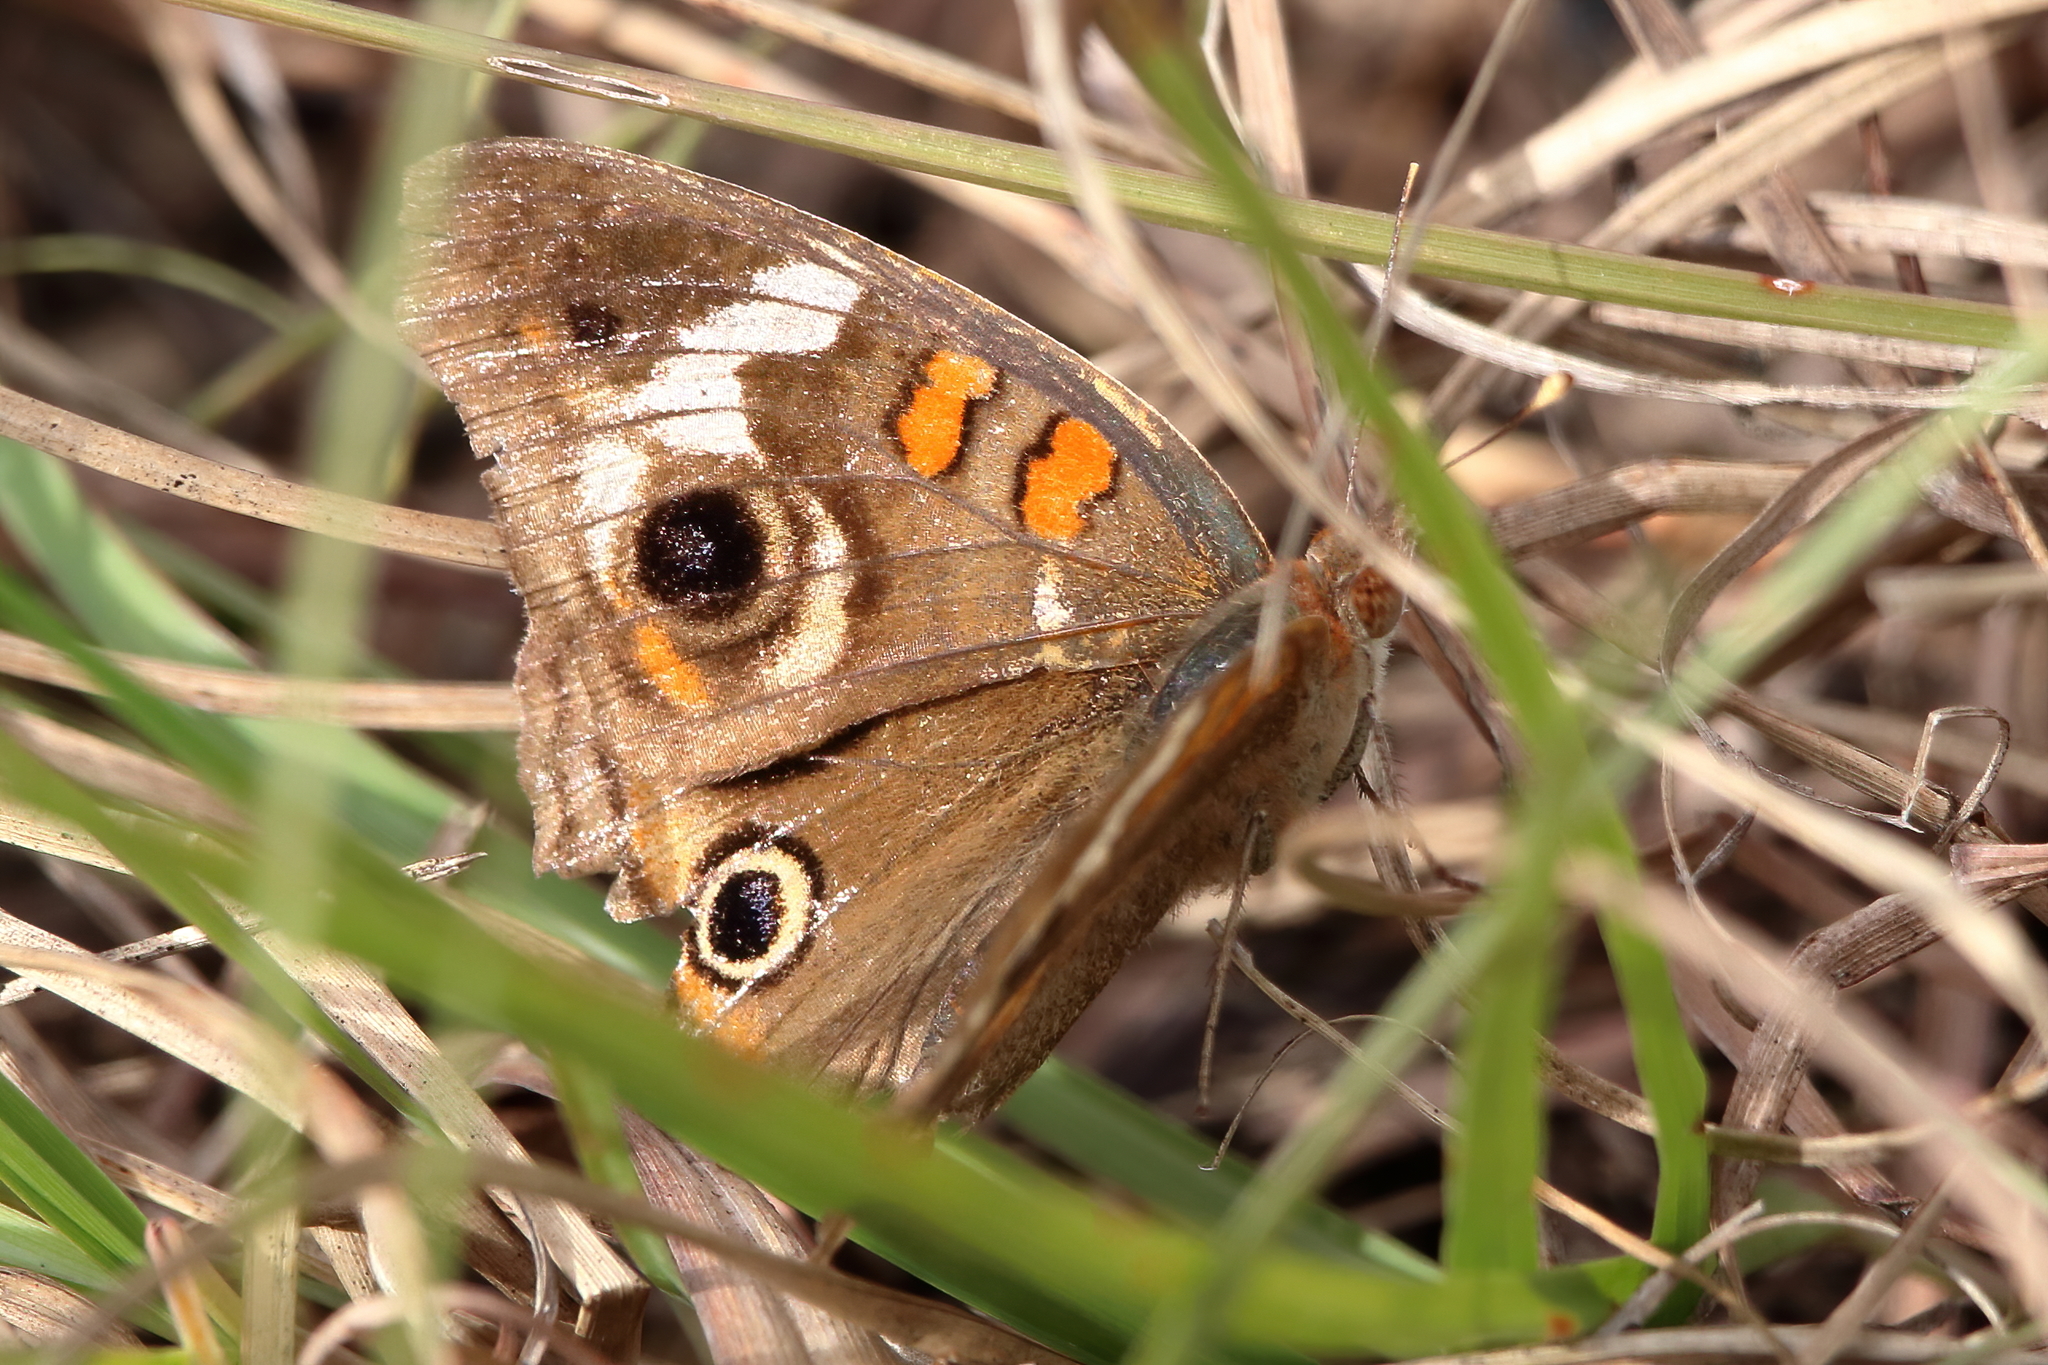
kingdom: Animalia
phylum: Arthropoda
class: Insecta
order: Lepidoptera
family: Nymphalidae
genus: Junonia
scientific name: Junonia coenia
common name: Common buckeye
